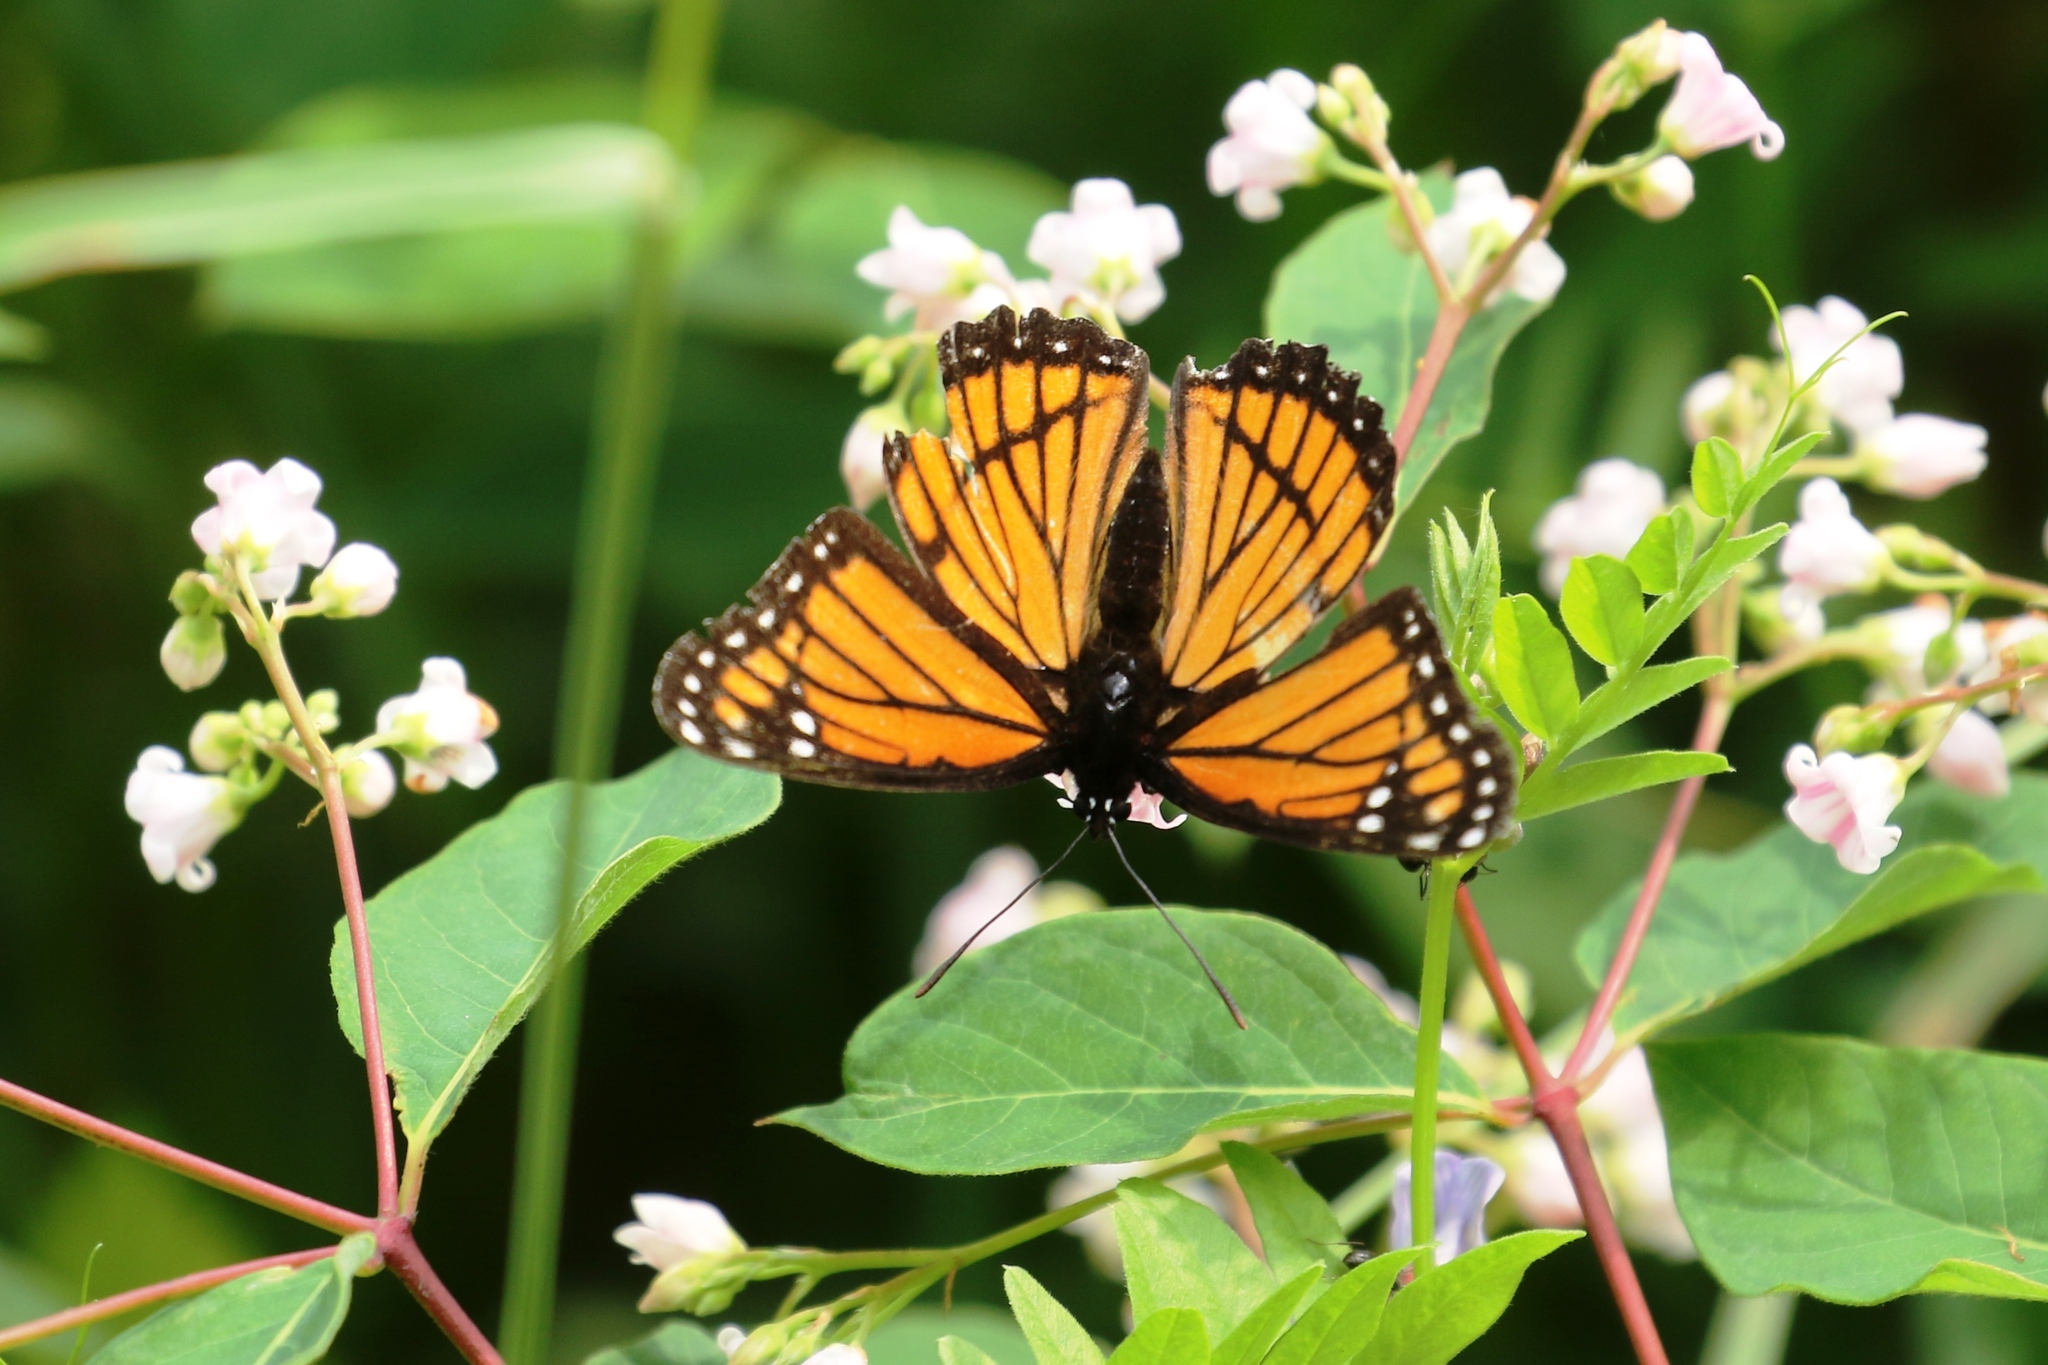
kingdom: Animalia
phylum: Arthropoda
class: Insecta
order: Lepidoptera
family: Nymphalidae
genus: Limenitis
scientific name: Limenitis archippus
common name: Viceroy
